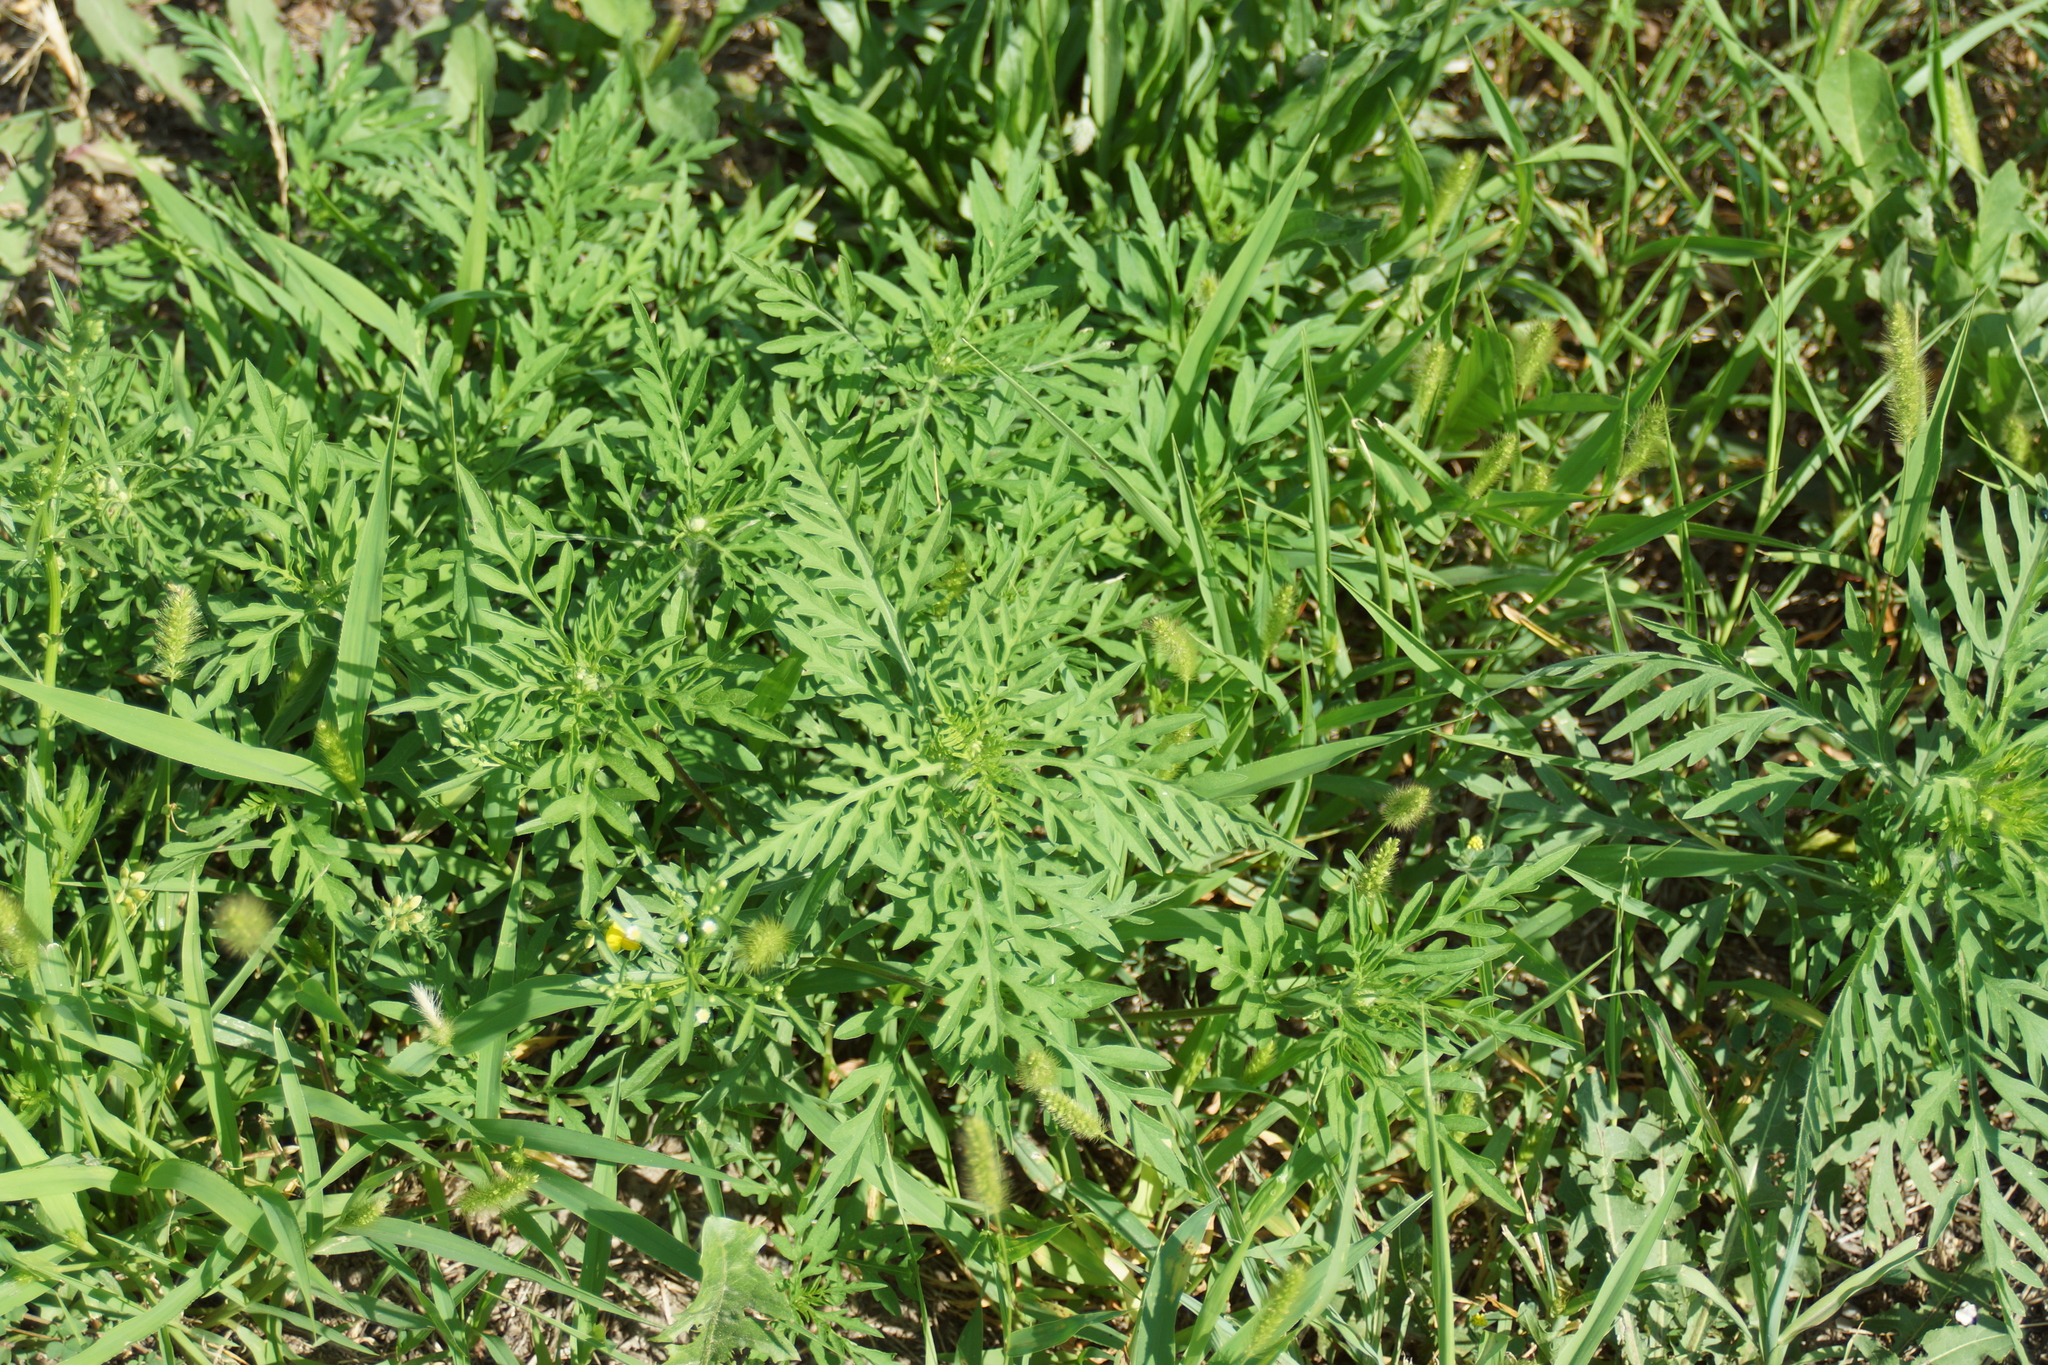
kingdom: Plantae
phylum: Tracheophyta
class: Magnoliopsida
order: Asterales
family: Asteraceae
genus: Ambrosia
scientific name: Ambrosia artemisiifolia
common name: Annual ragweed
